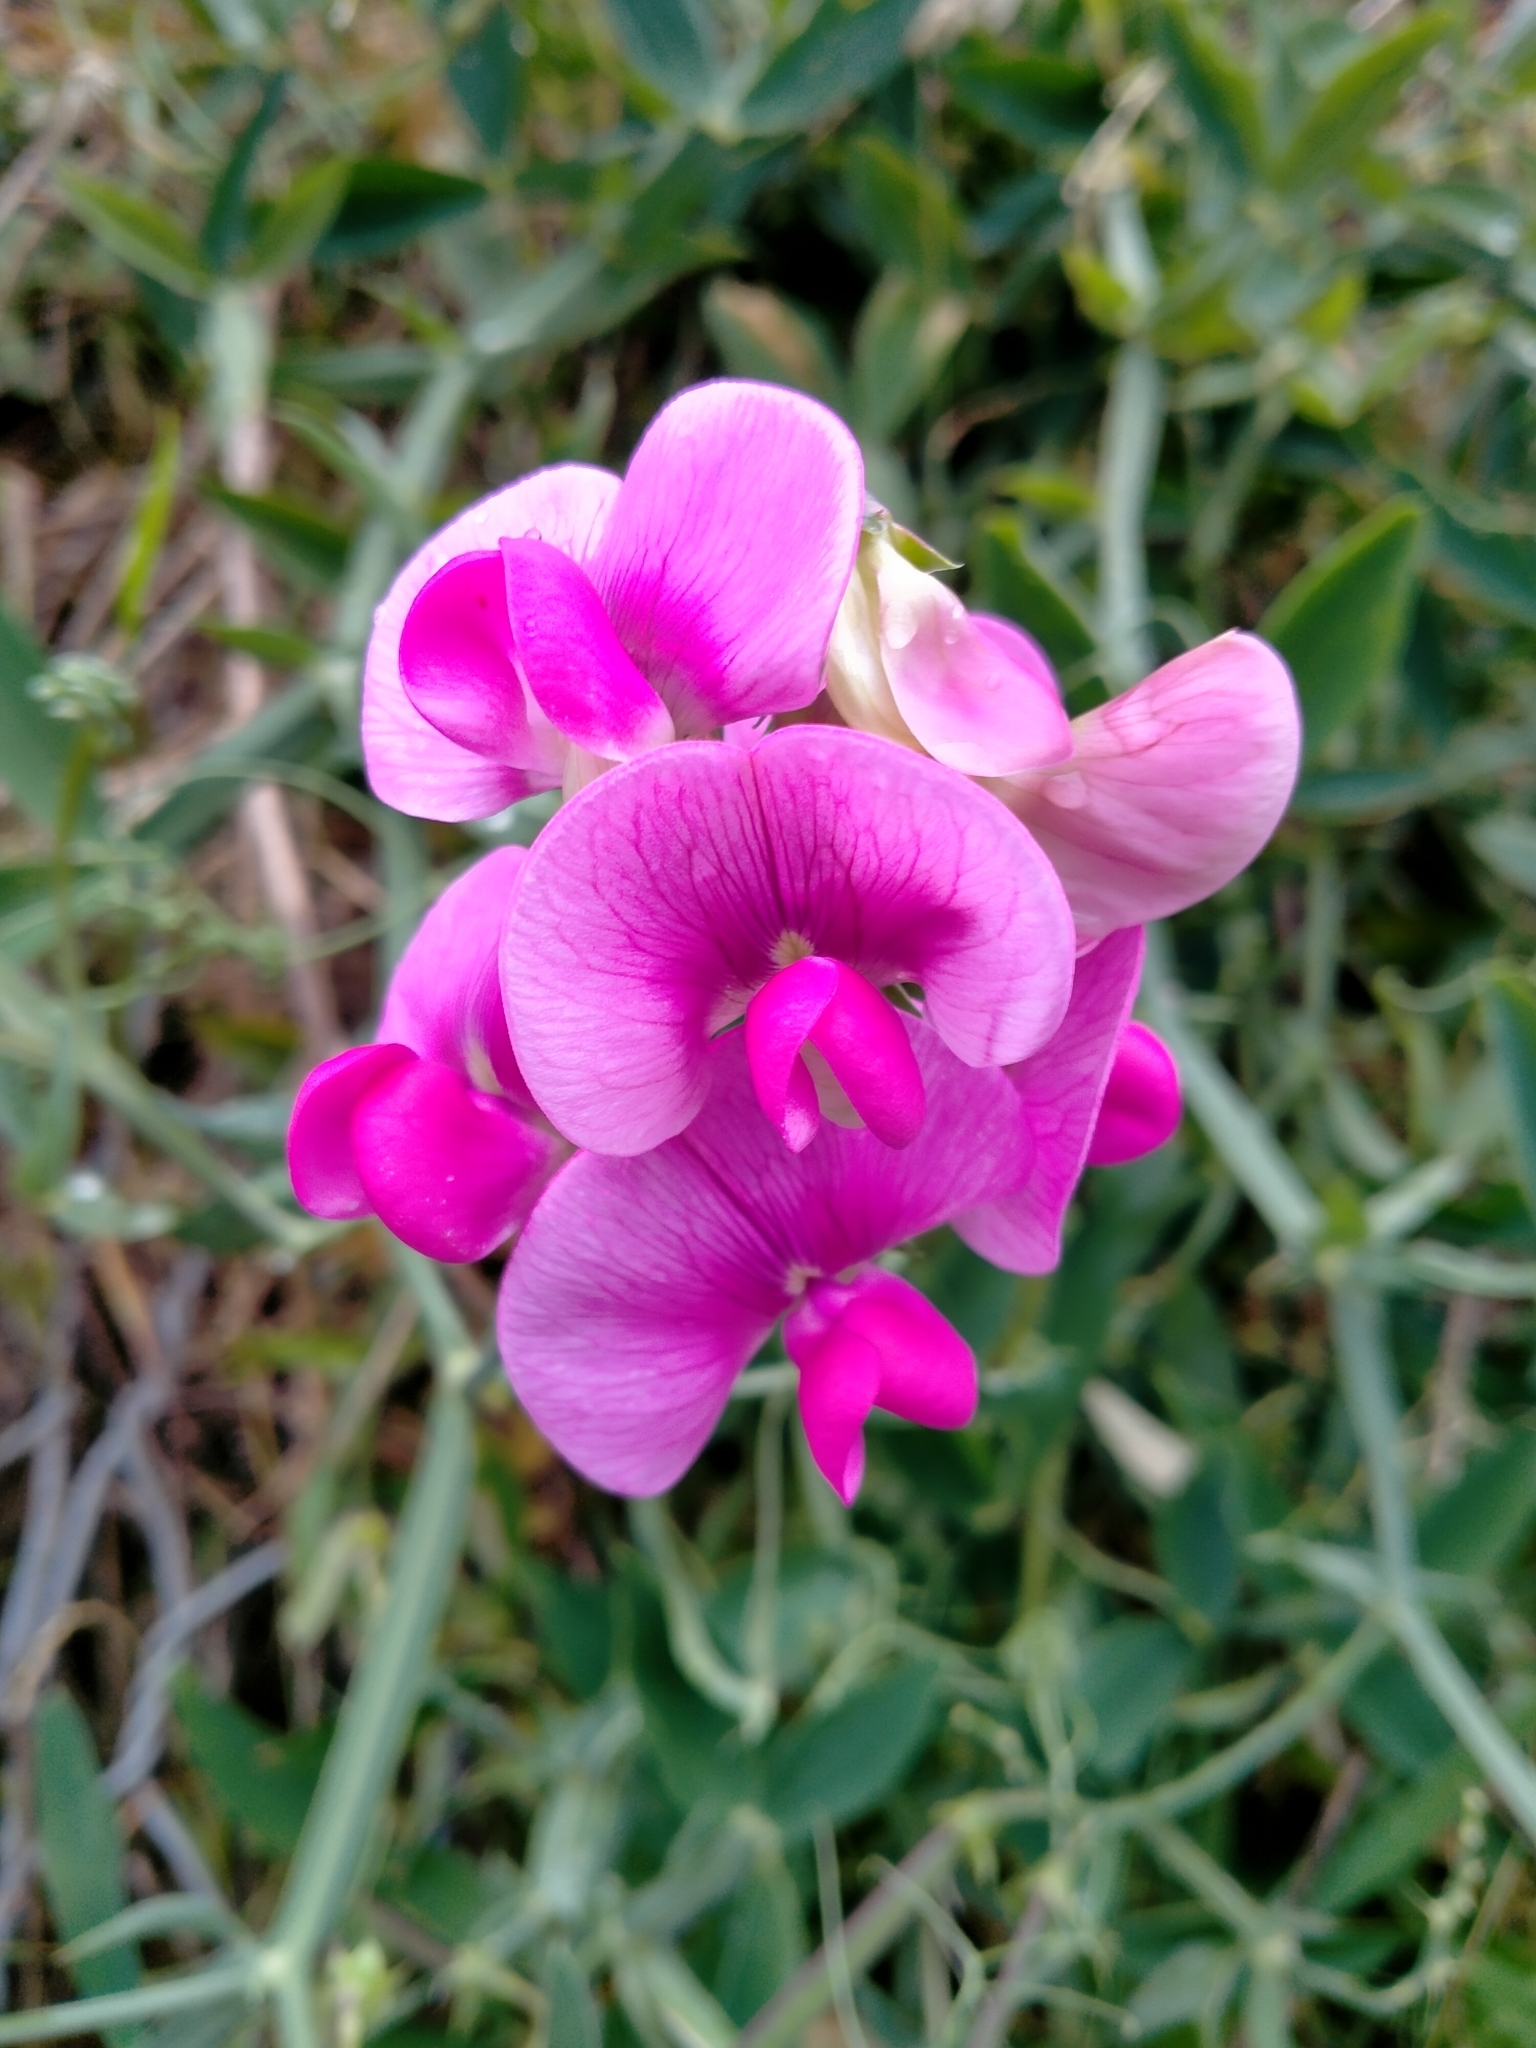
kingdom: Plantae
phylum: Tracheophyta
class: Magnoliopsida
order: Fabales
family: Fabaceae
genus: Lathyrus
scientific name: Lathyrus latifolius
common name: Perennial pea
